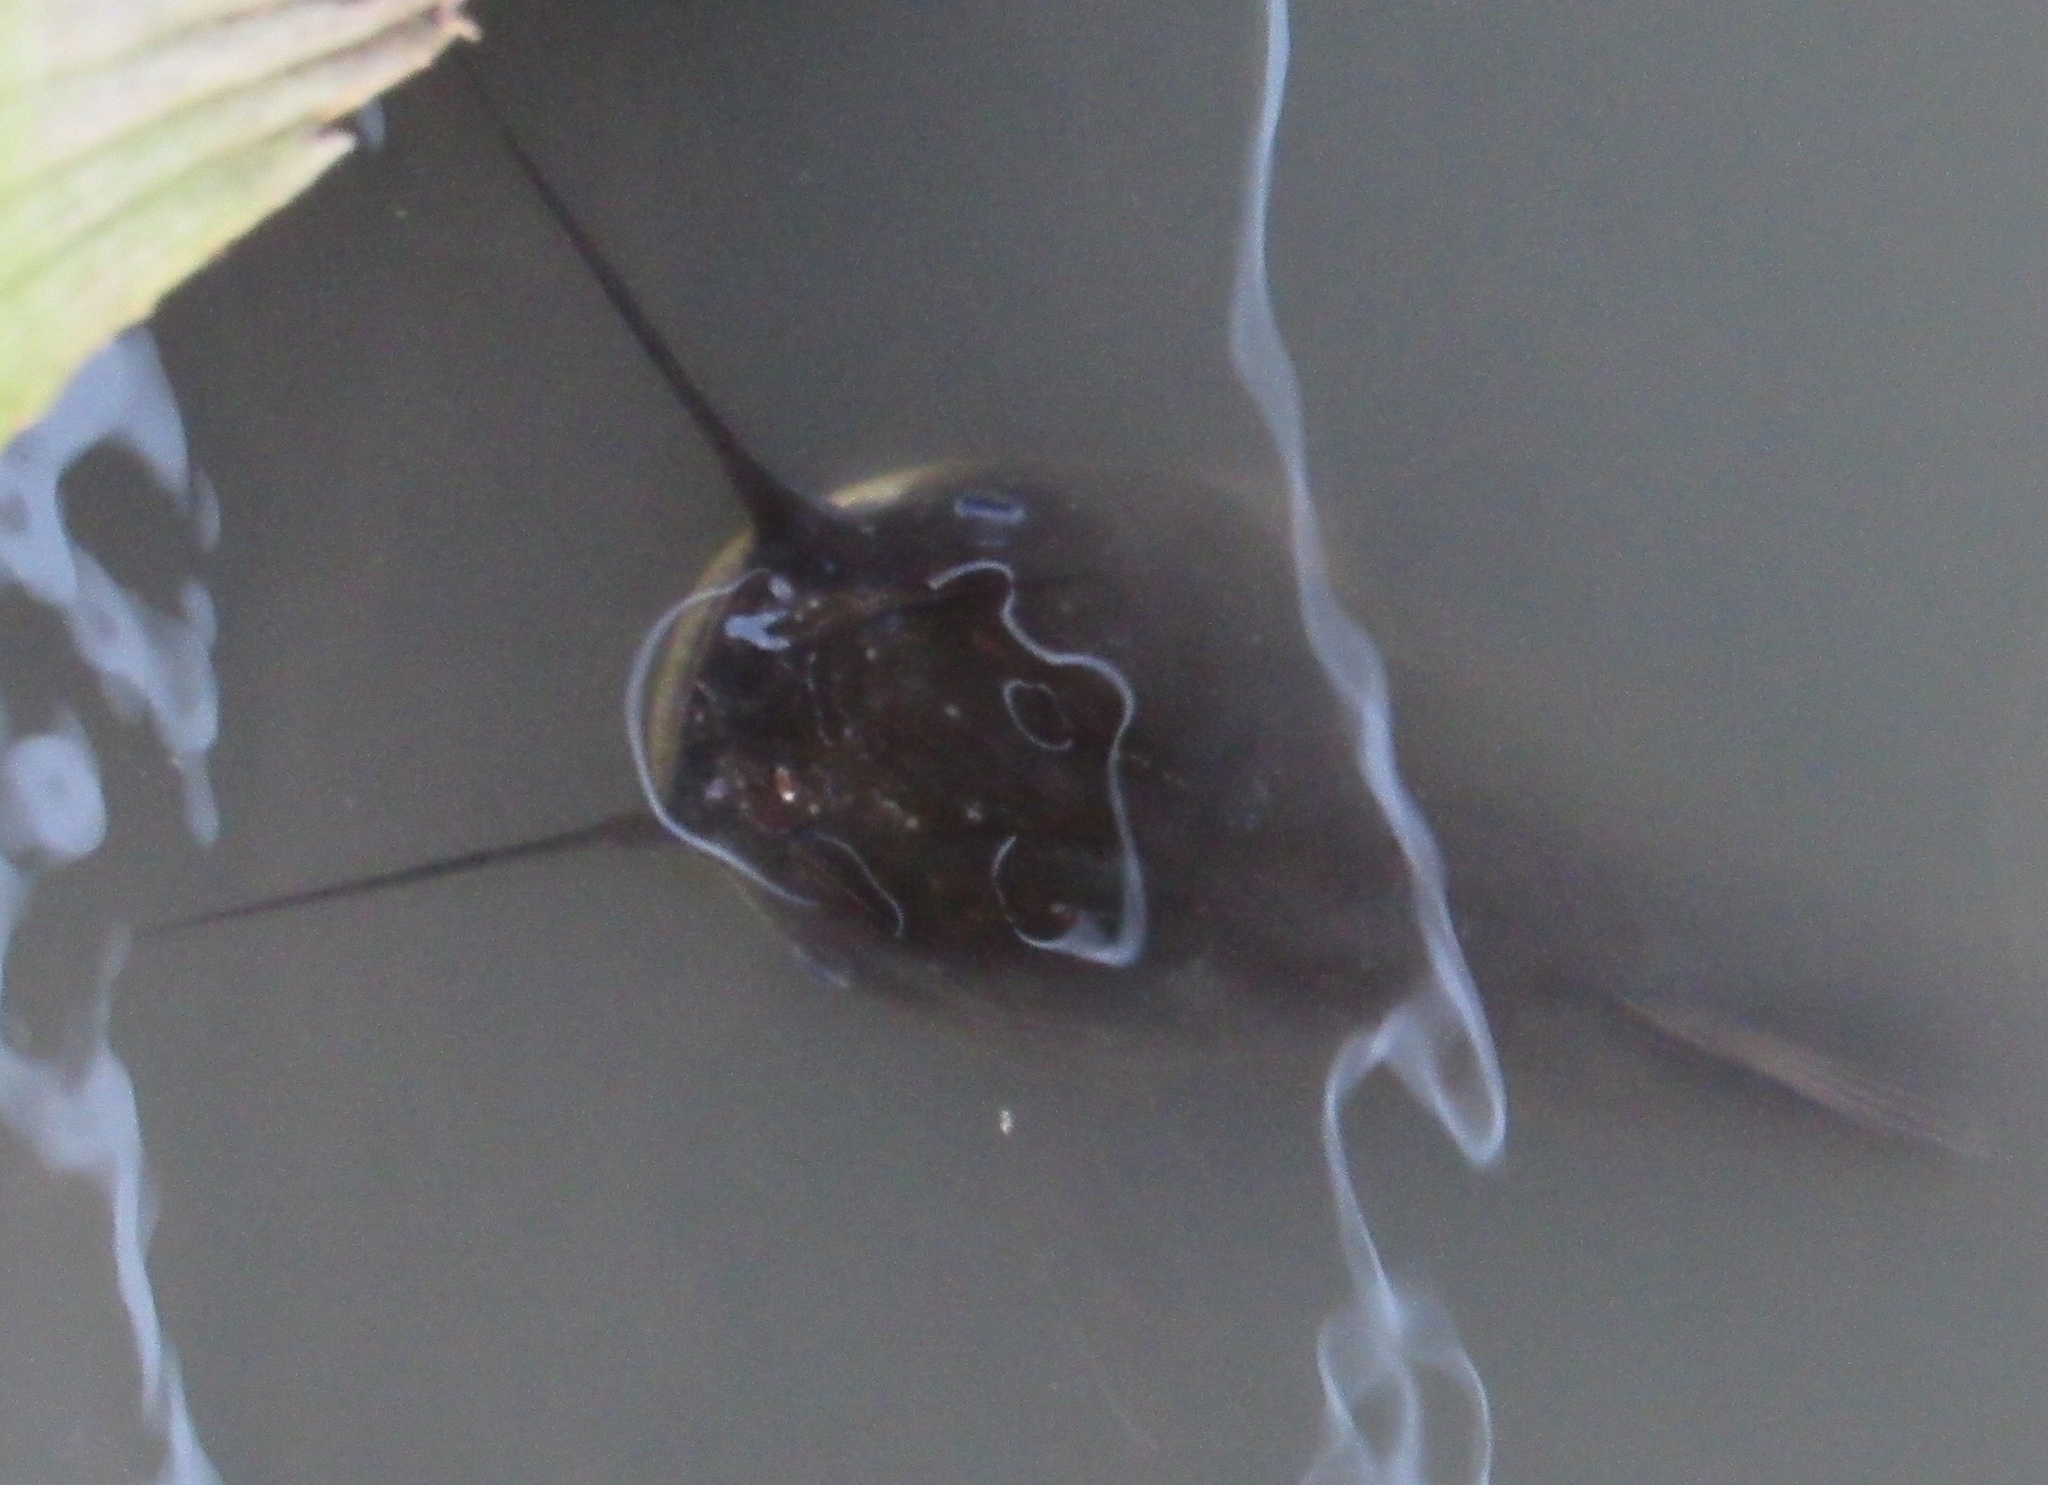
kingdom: Animalia
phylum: Chordata
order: Siluriformes
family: Ictaluridae
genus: Ameiurus
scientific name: Ameiurus melas
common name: Black bullhead
